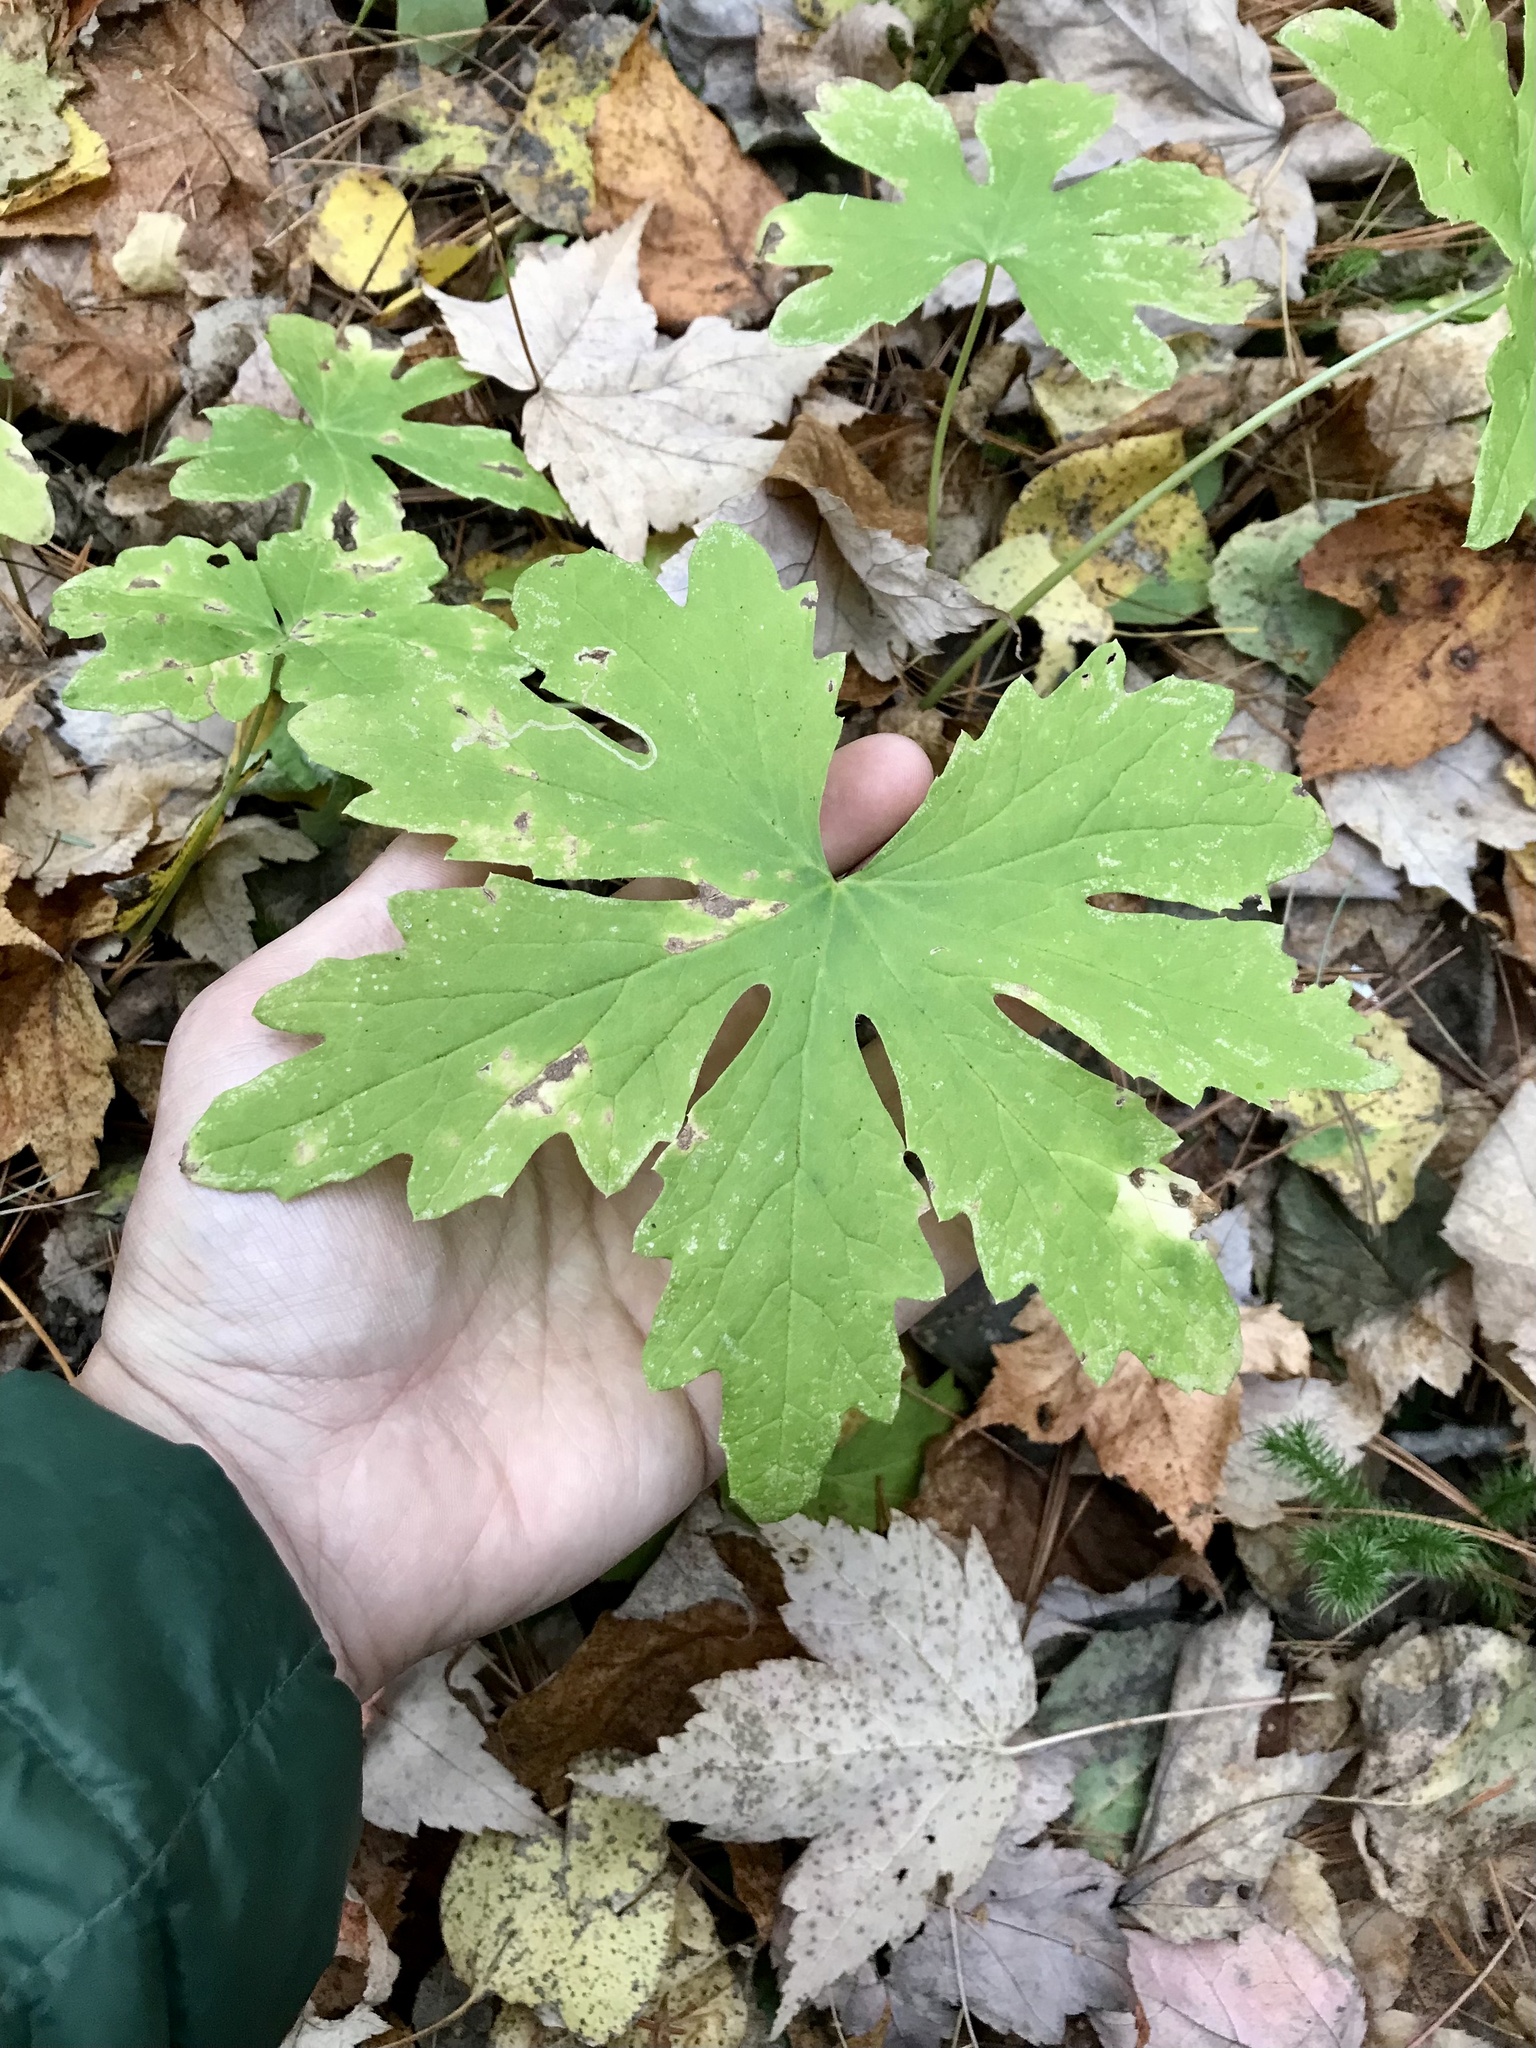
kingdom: Plantae
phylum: Tracheophyta
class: Magnoliopsida
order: Asterales
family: Asteraceae
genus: Petasites
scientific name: Petasites frigidus
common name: Arctic butterbur
